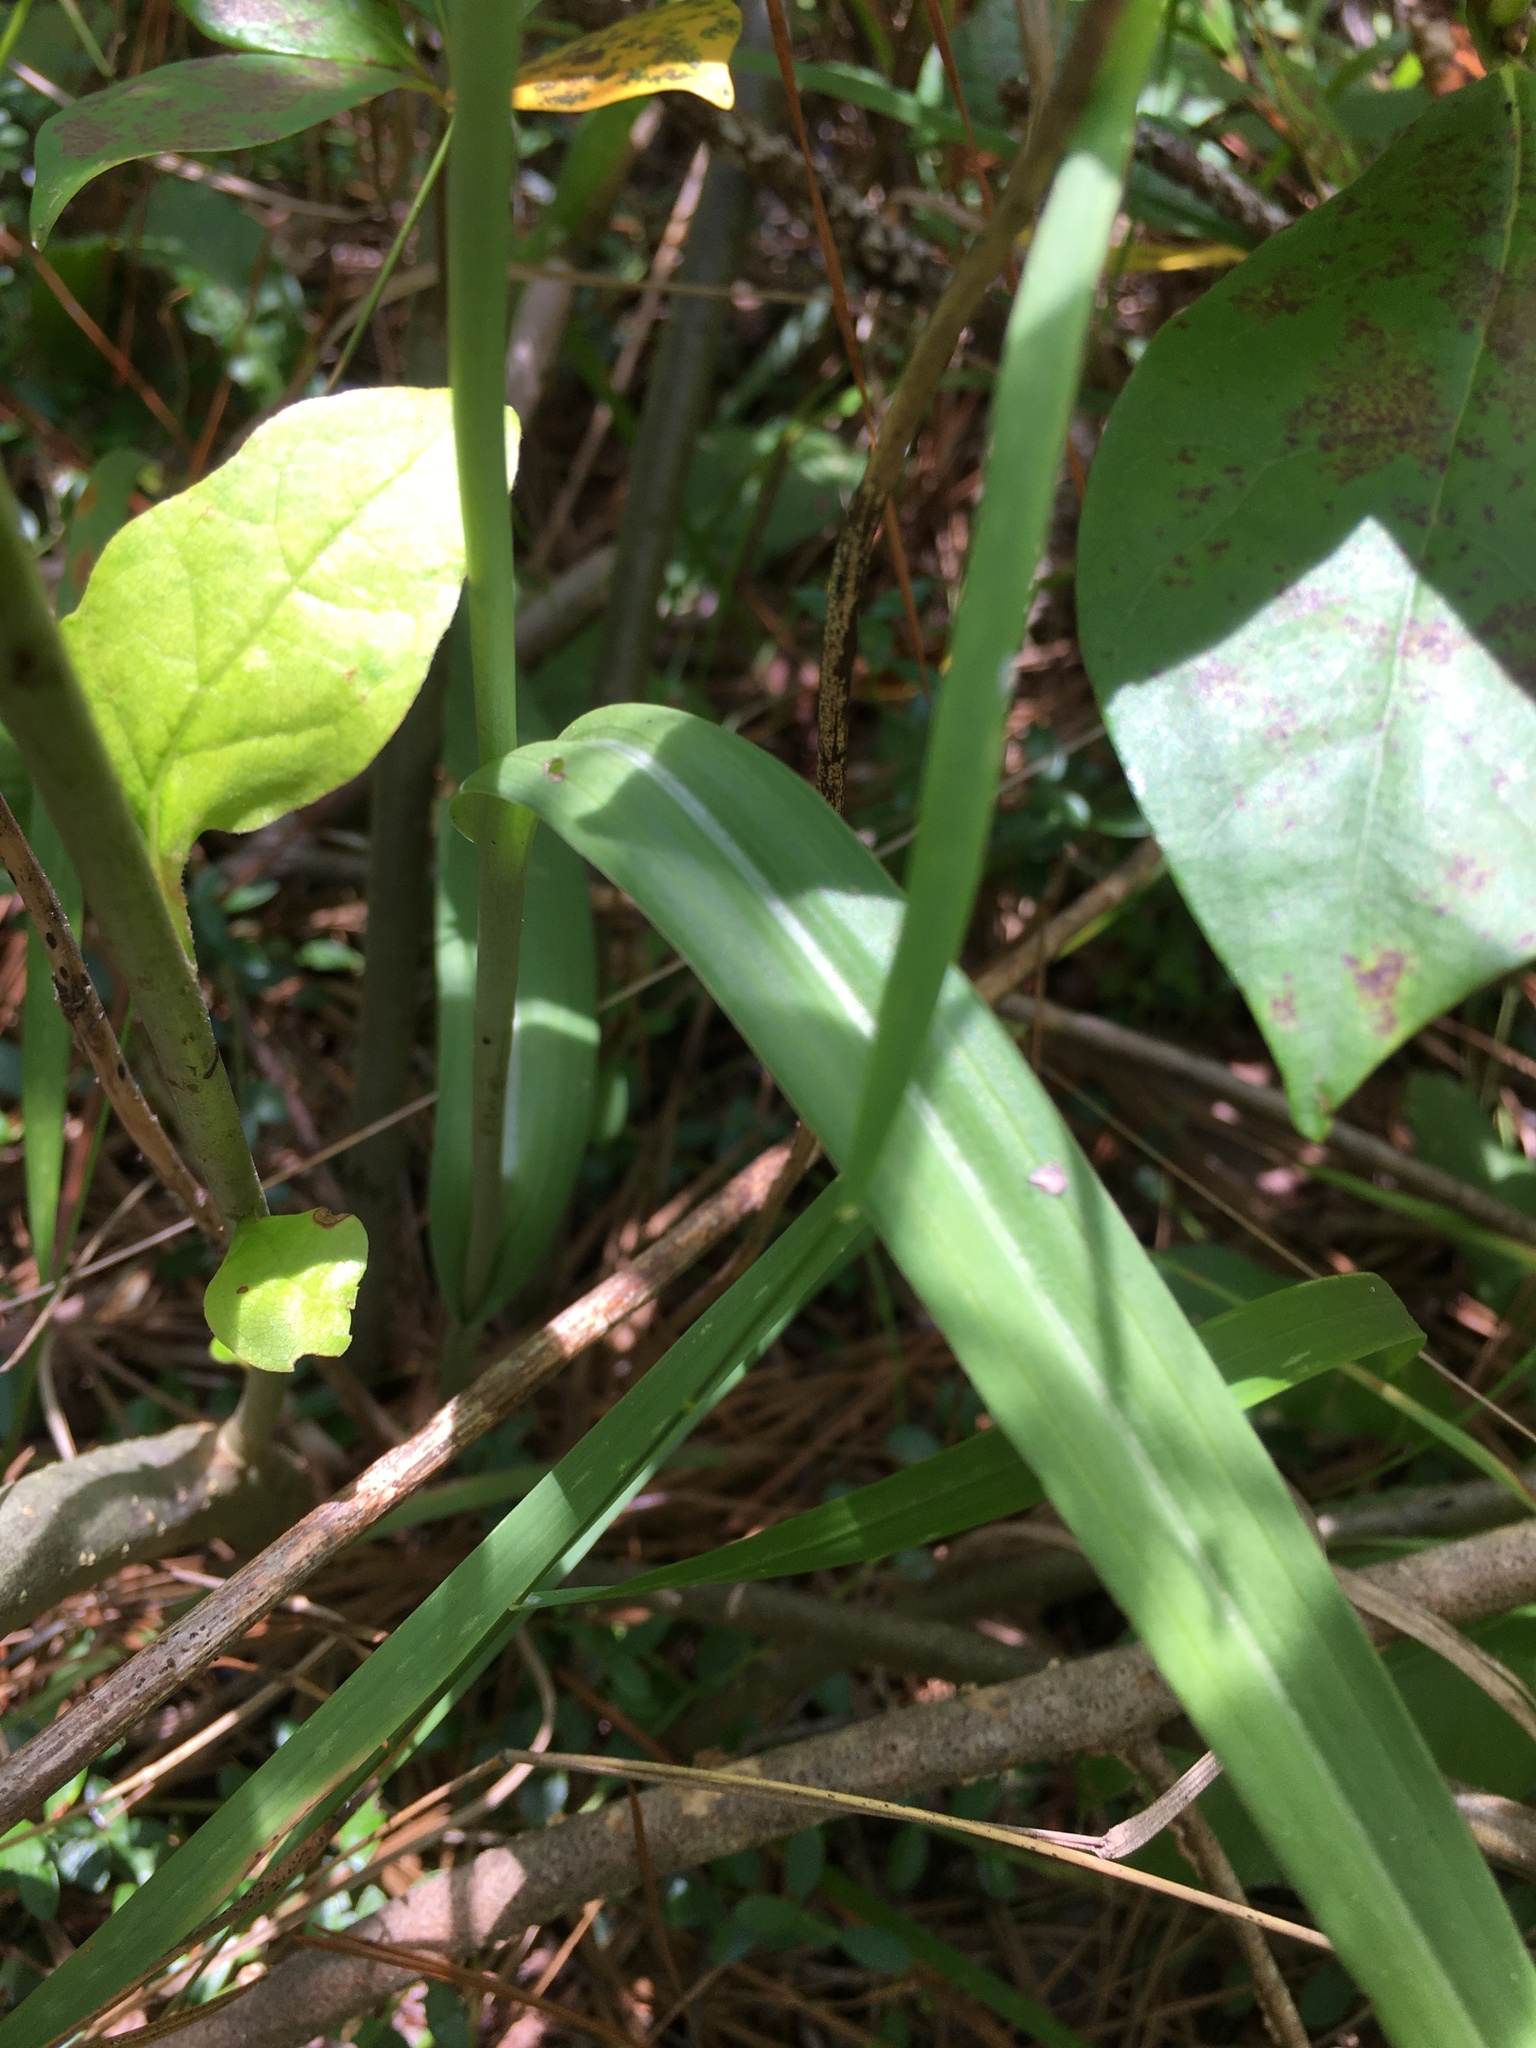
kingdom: Plantae
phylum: Tracheophyta
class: Liliopsida
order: Asparagales
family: Orchidaceae
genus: Platanthera
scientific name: Platanthera ciliaris
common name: Yellow fringed orchid
